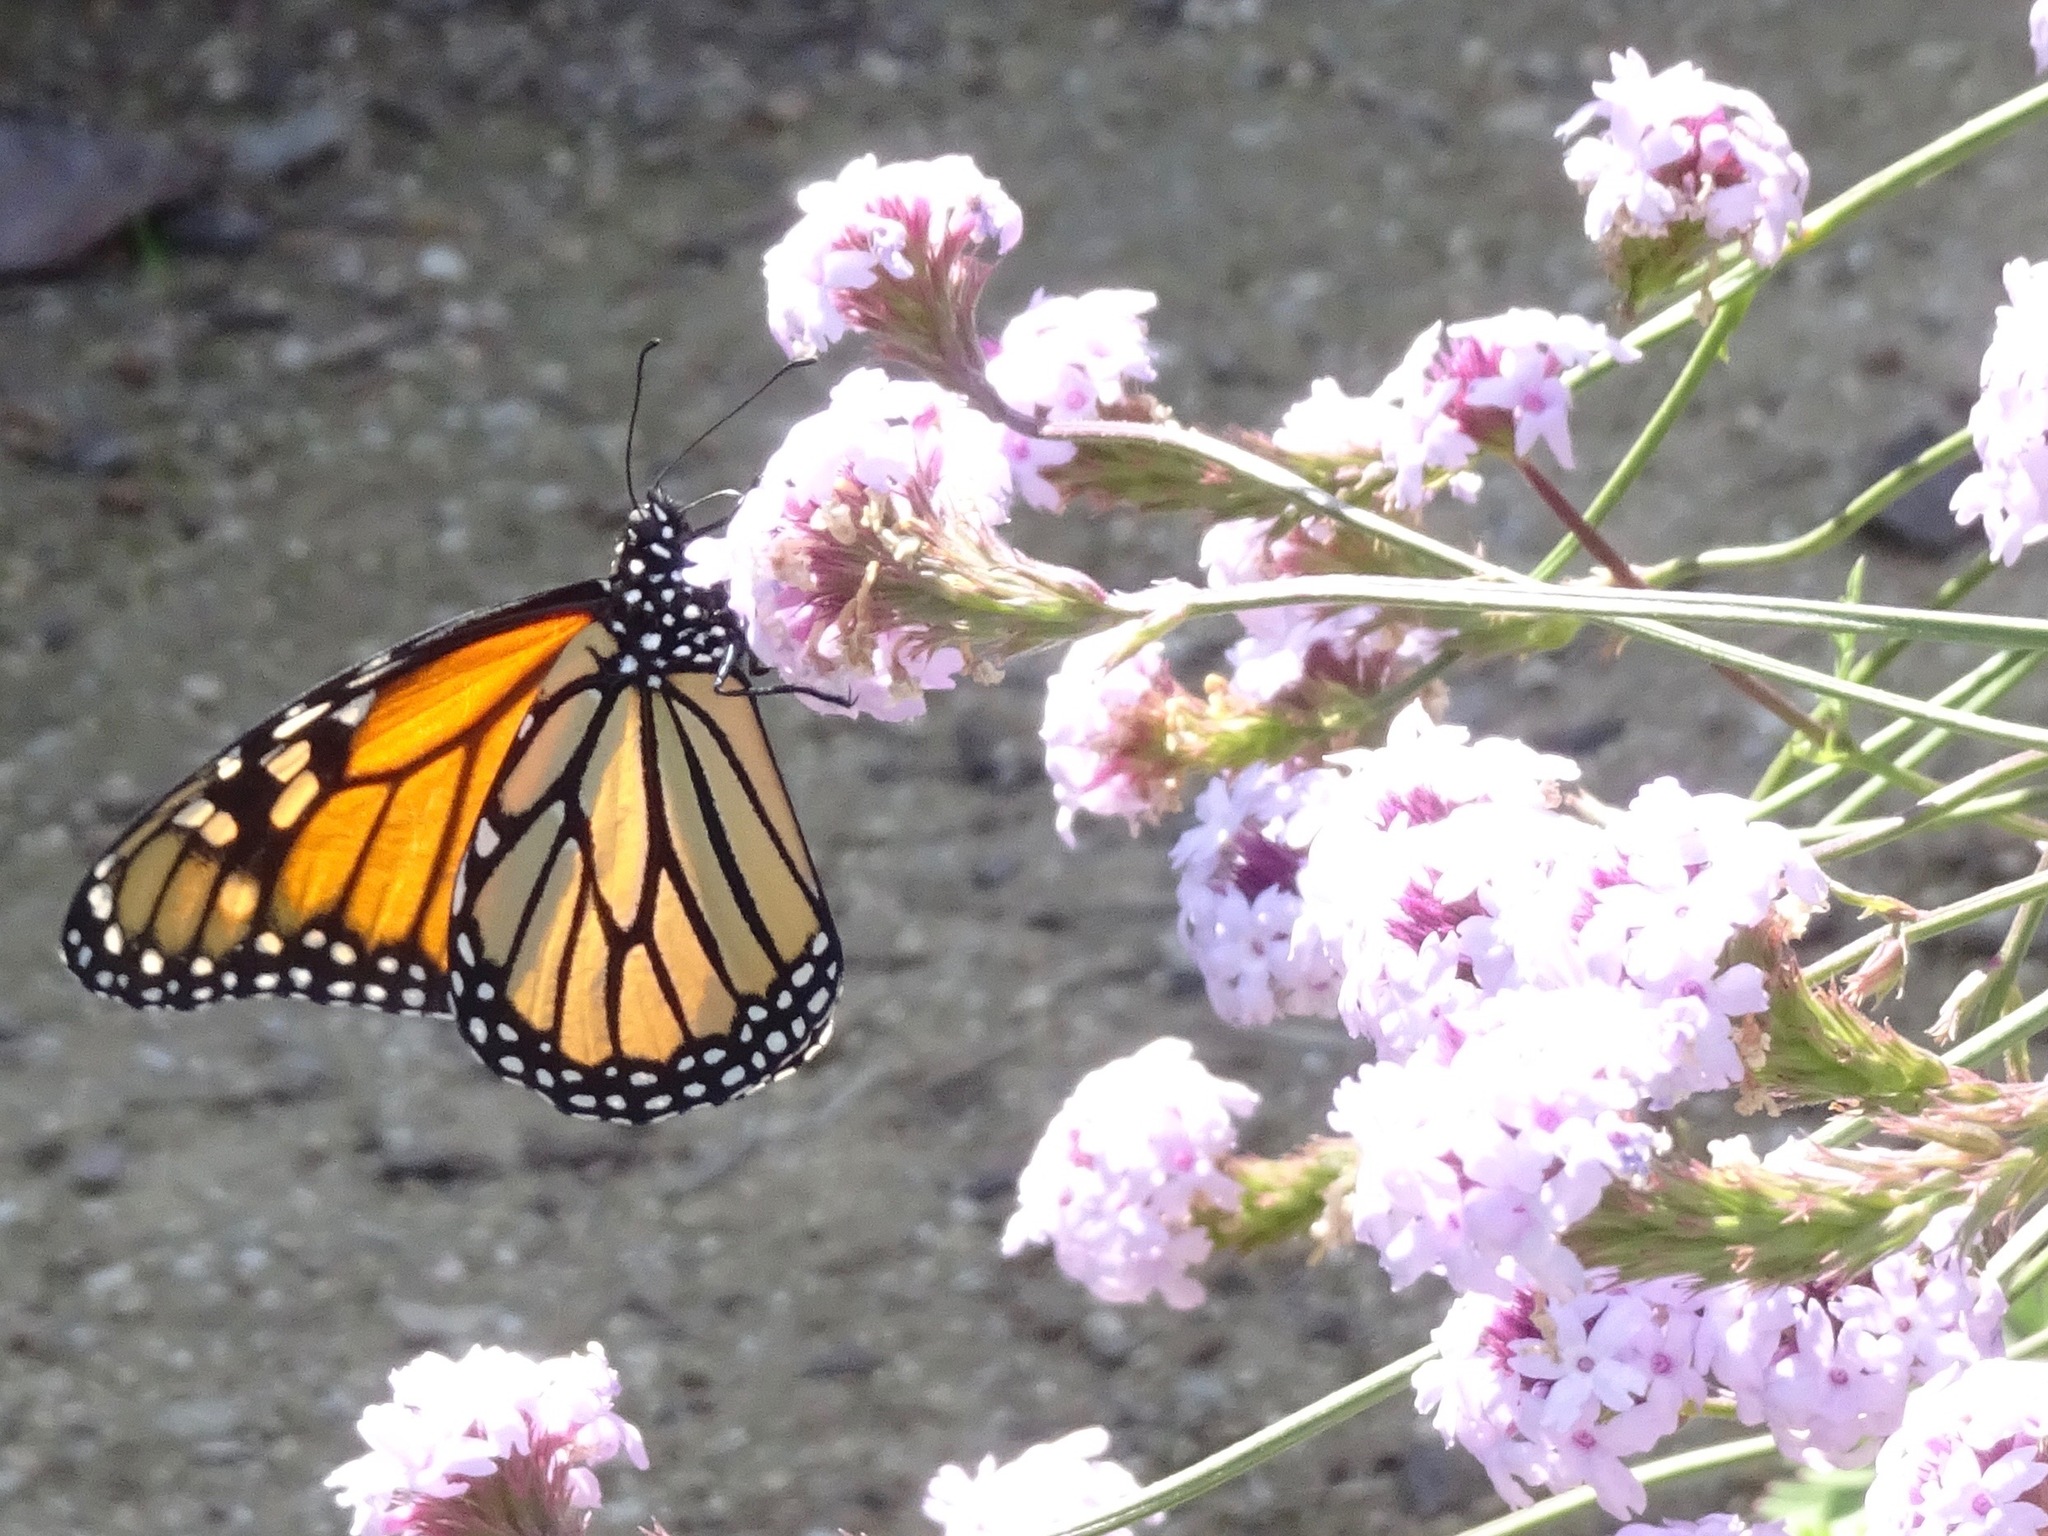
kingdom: Animalia
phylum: Arthropoda
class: Insecta
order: Lepidoptera
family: Nymphalidae
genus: Danaus
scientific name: Danaus plexippus
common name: Monarch
